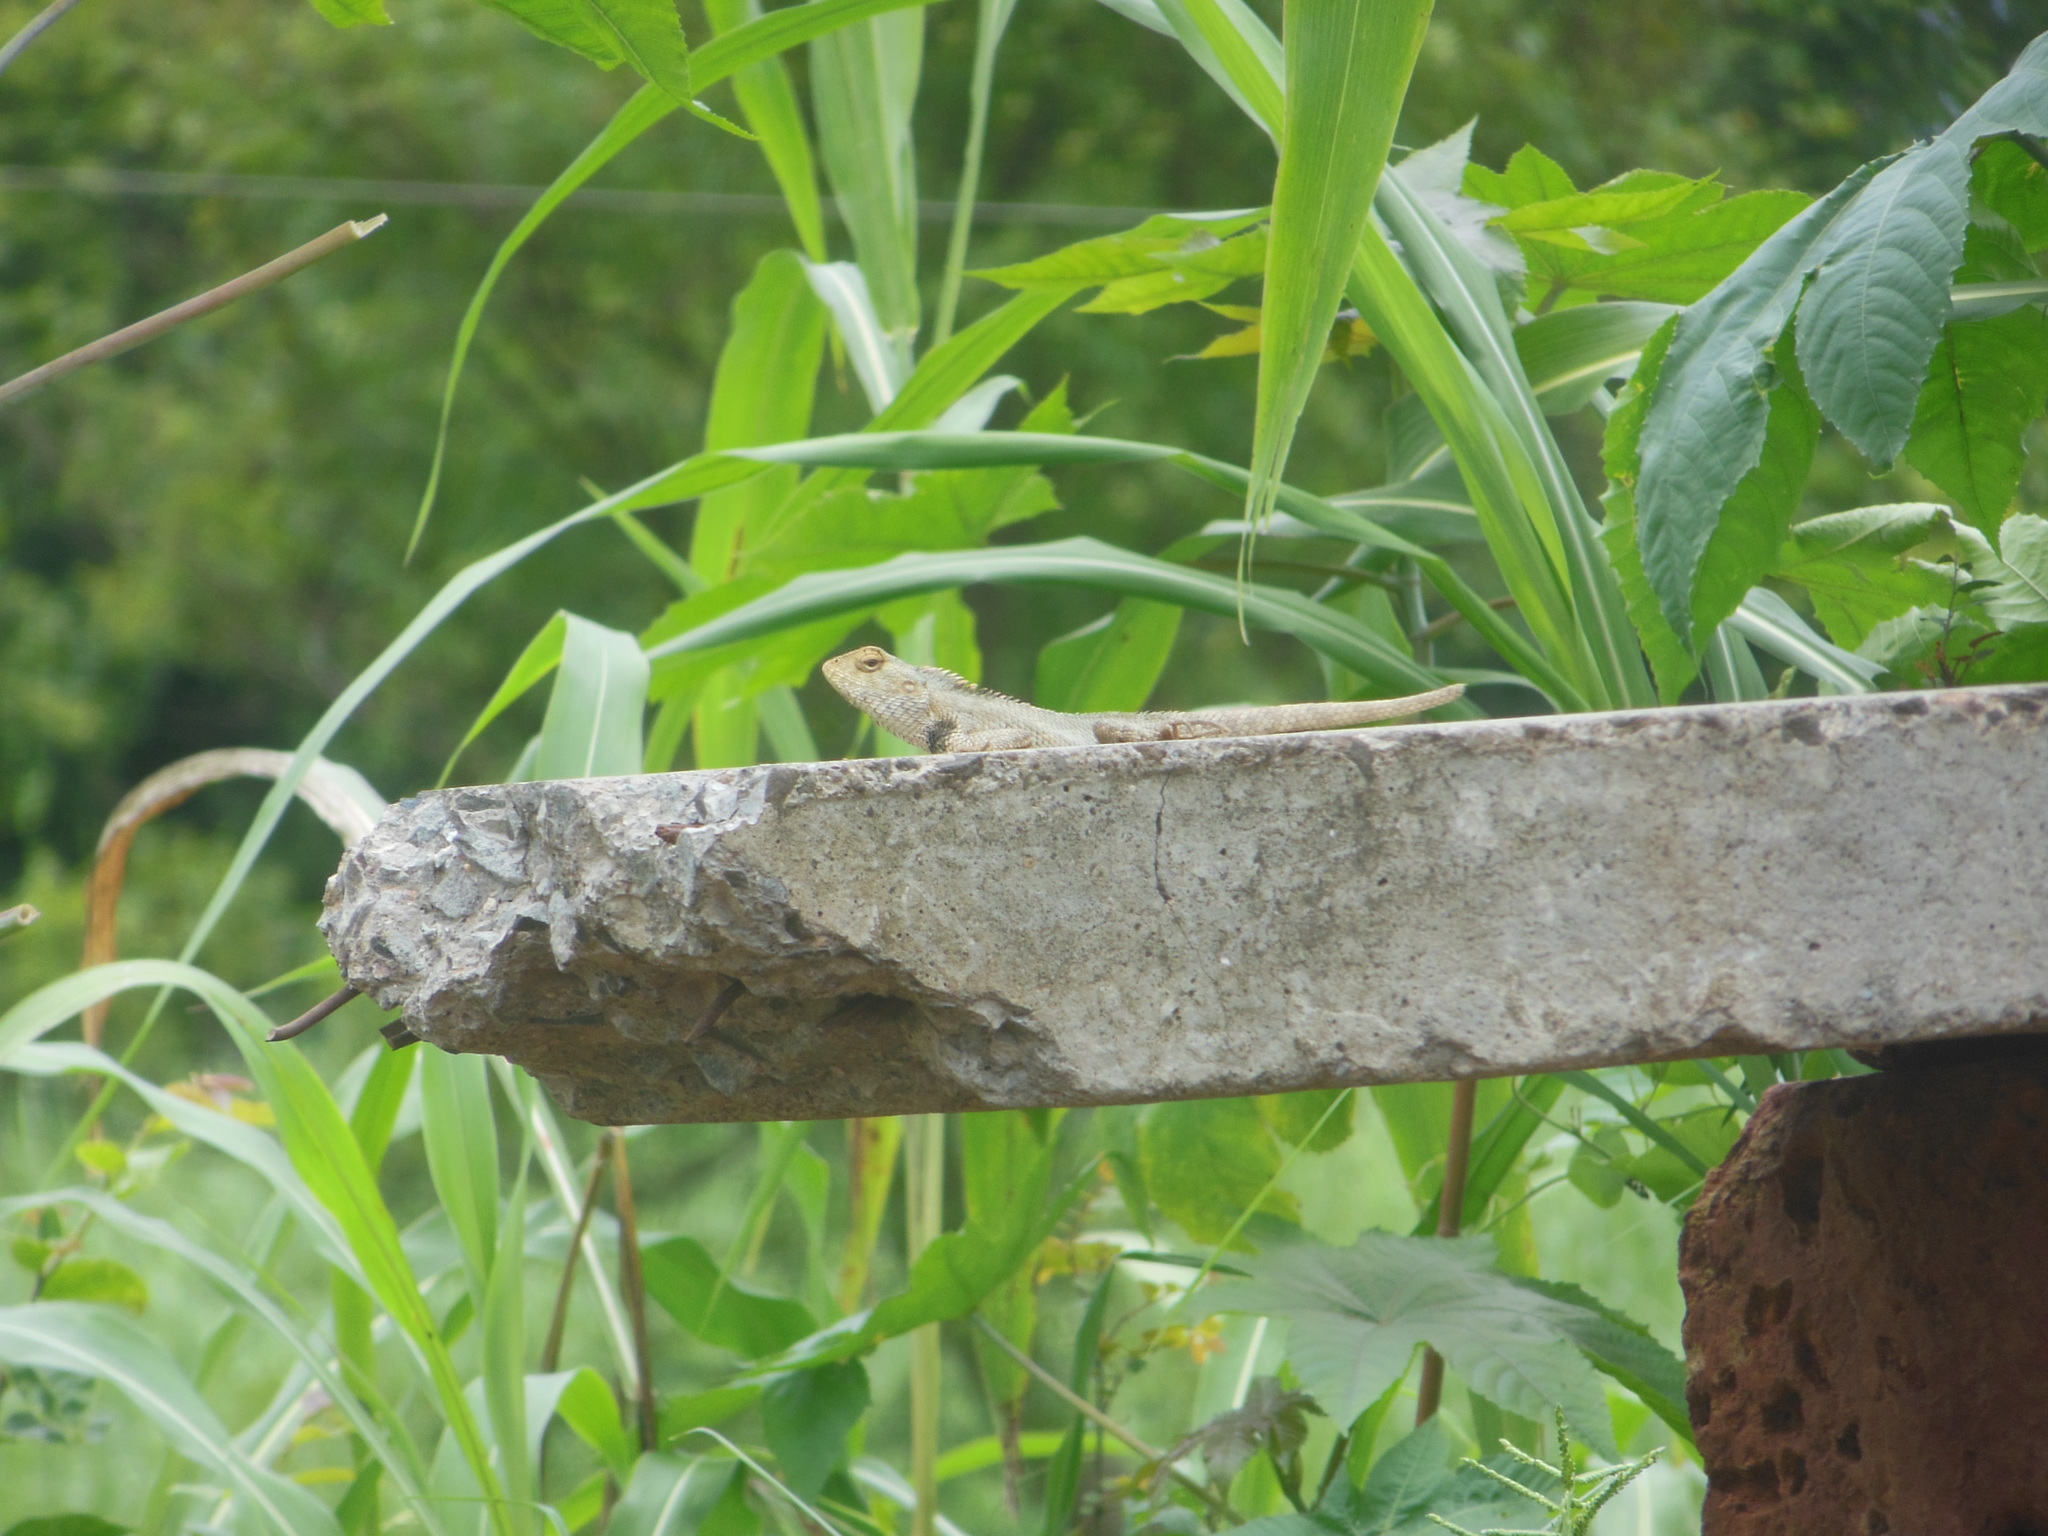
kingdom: Animalia
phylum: Chordata
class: Squamata
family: Agamidae
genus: Calotes
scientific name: Calotes versicolor
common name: Oriental garden lizard
